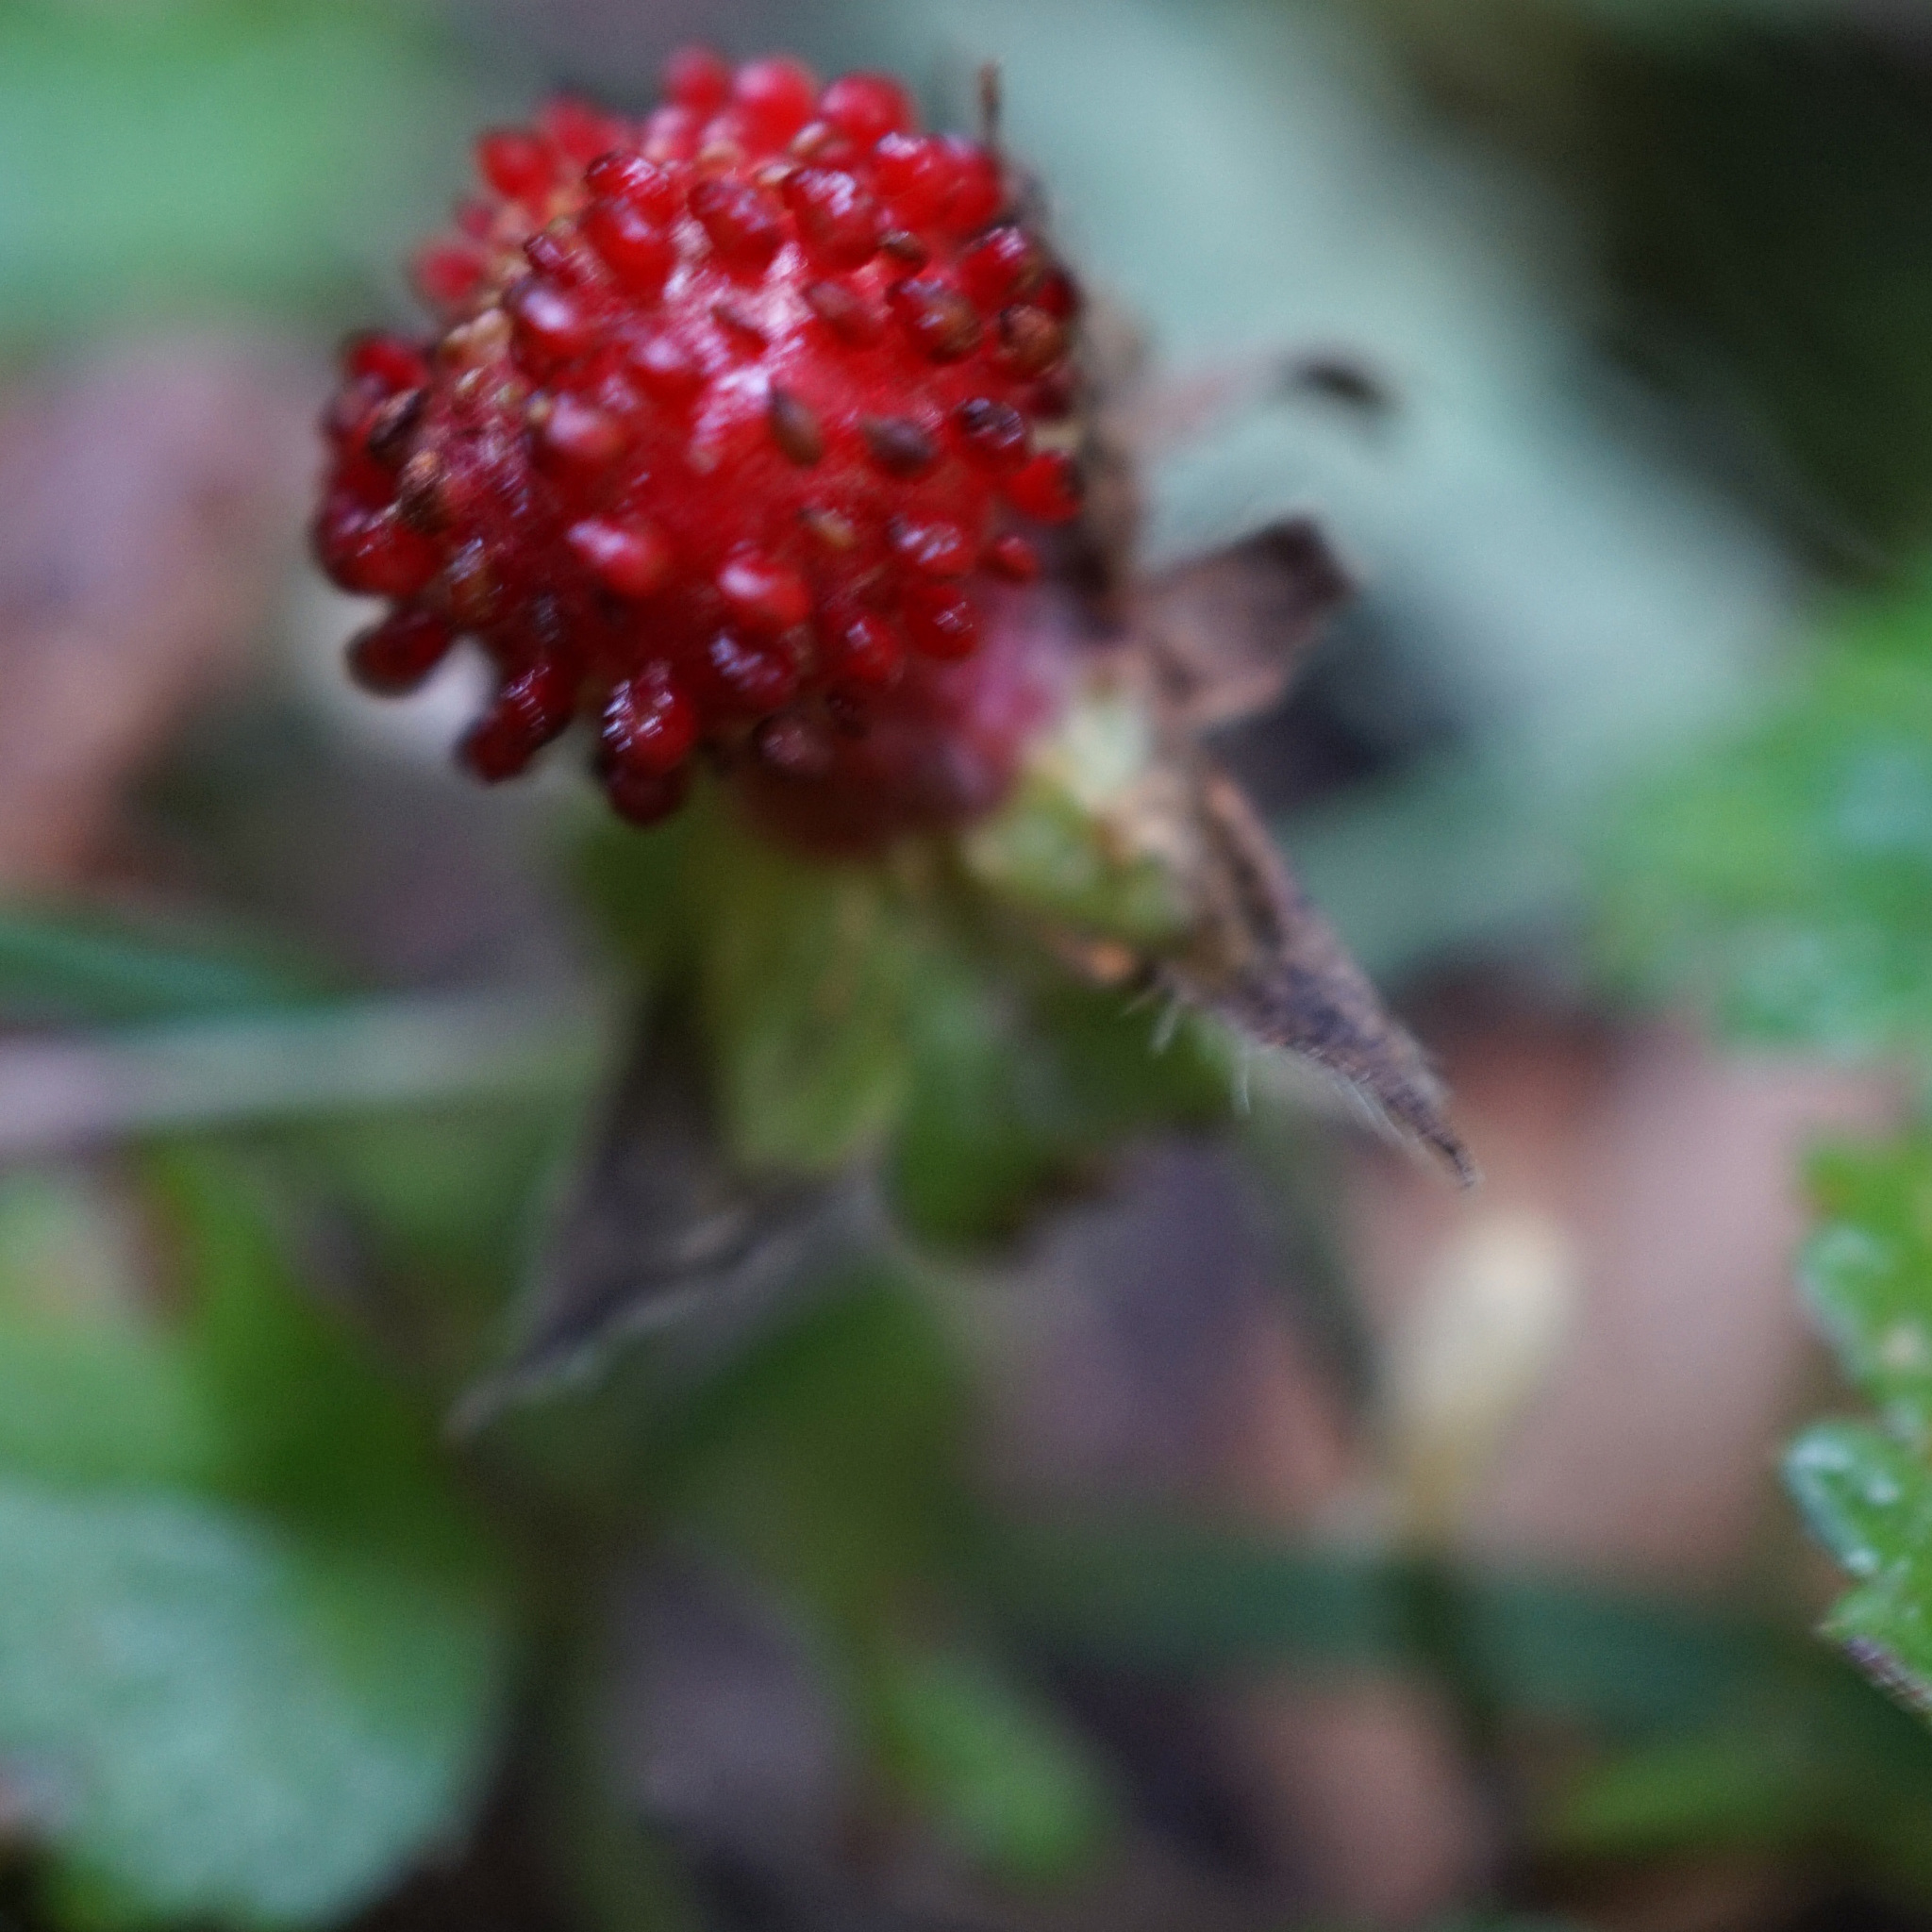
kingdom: Plantae
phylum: Tracheophyta
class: Magnoliopsida
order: Rosales
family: Rosaceae
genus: Potentilla
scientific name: Potentilla indica
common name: Yellow-flowered strawberry
